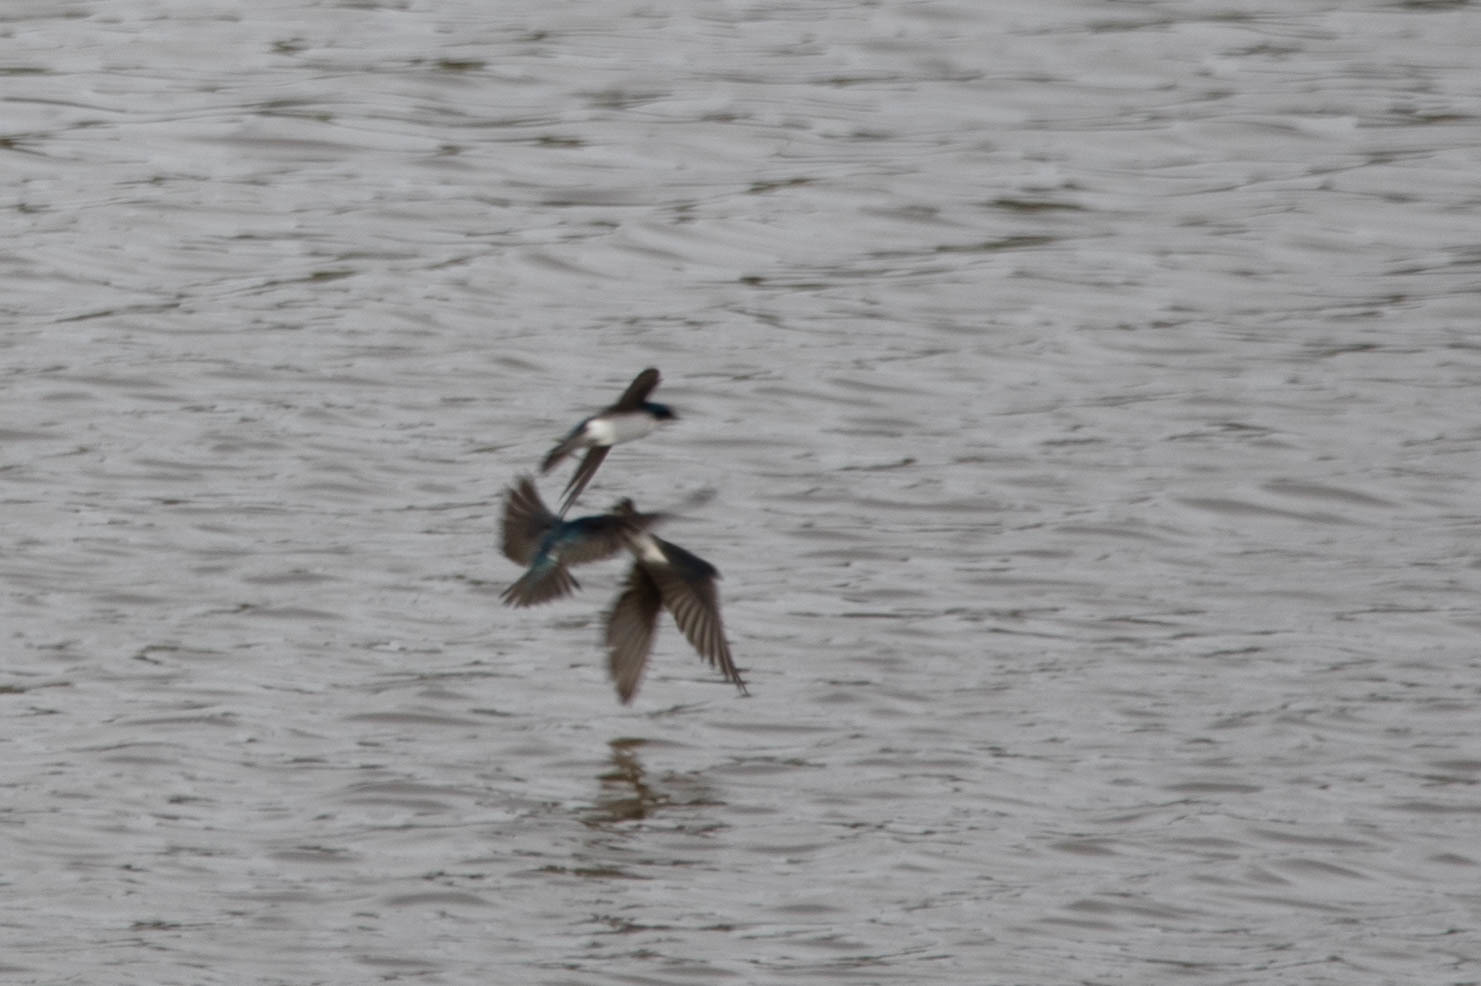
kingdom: Animalia
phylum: Chordata
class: Aves
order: Passeriformes
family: Hirundinidae
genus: Tachycineta
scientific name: Tachycineta bicolor
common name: Tree swallow
